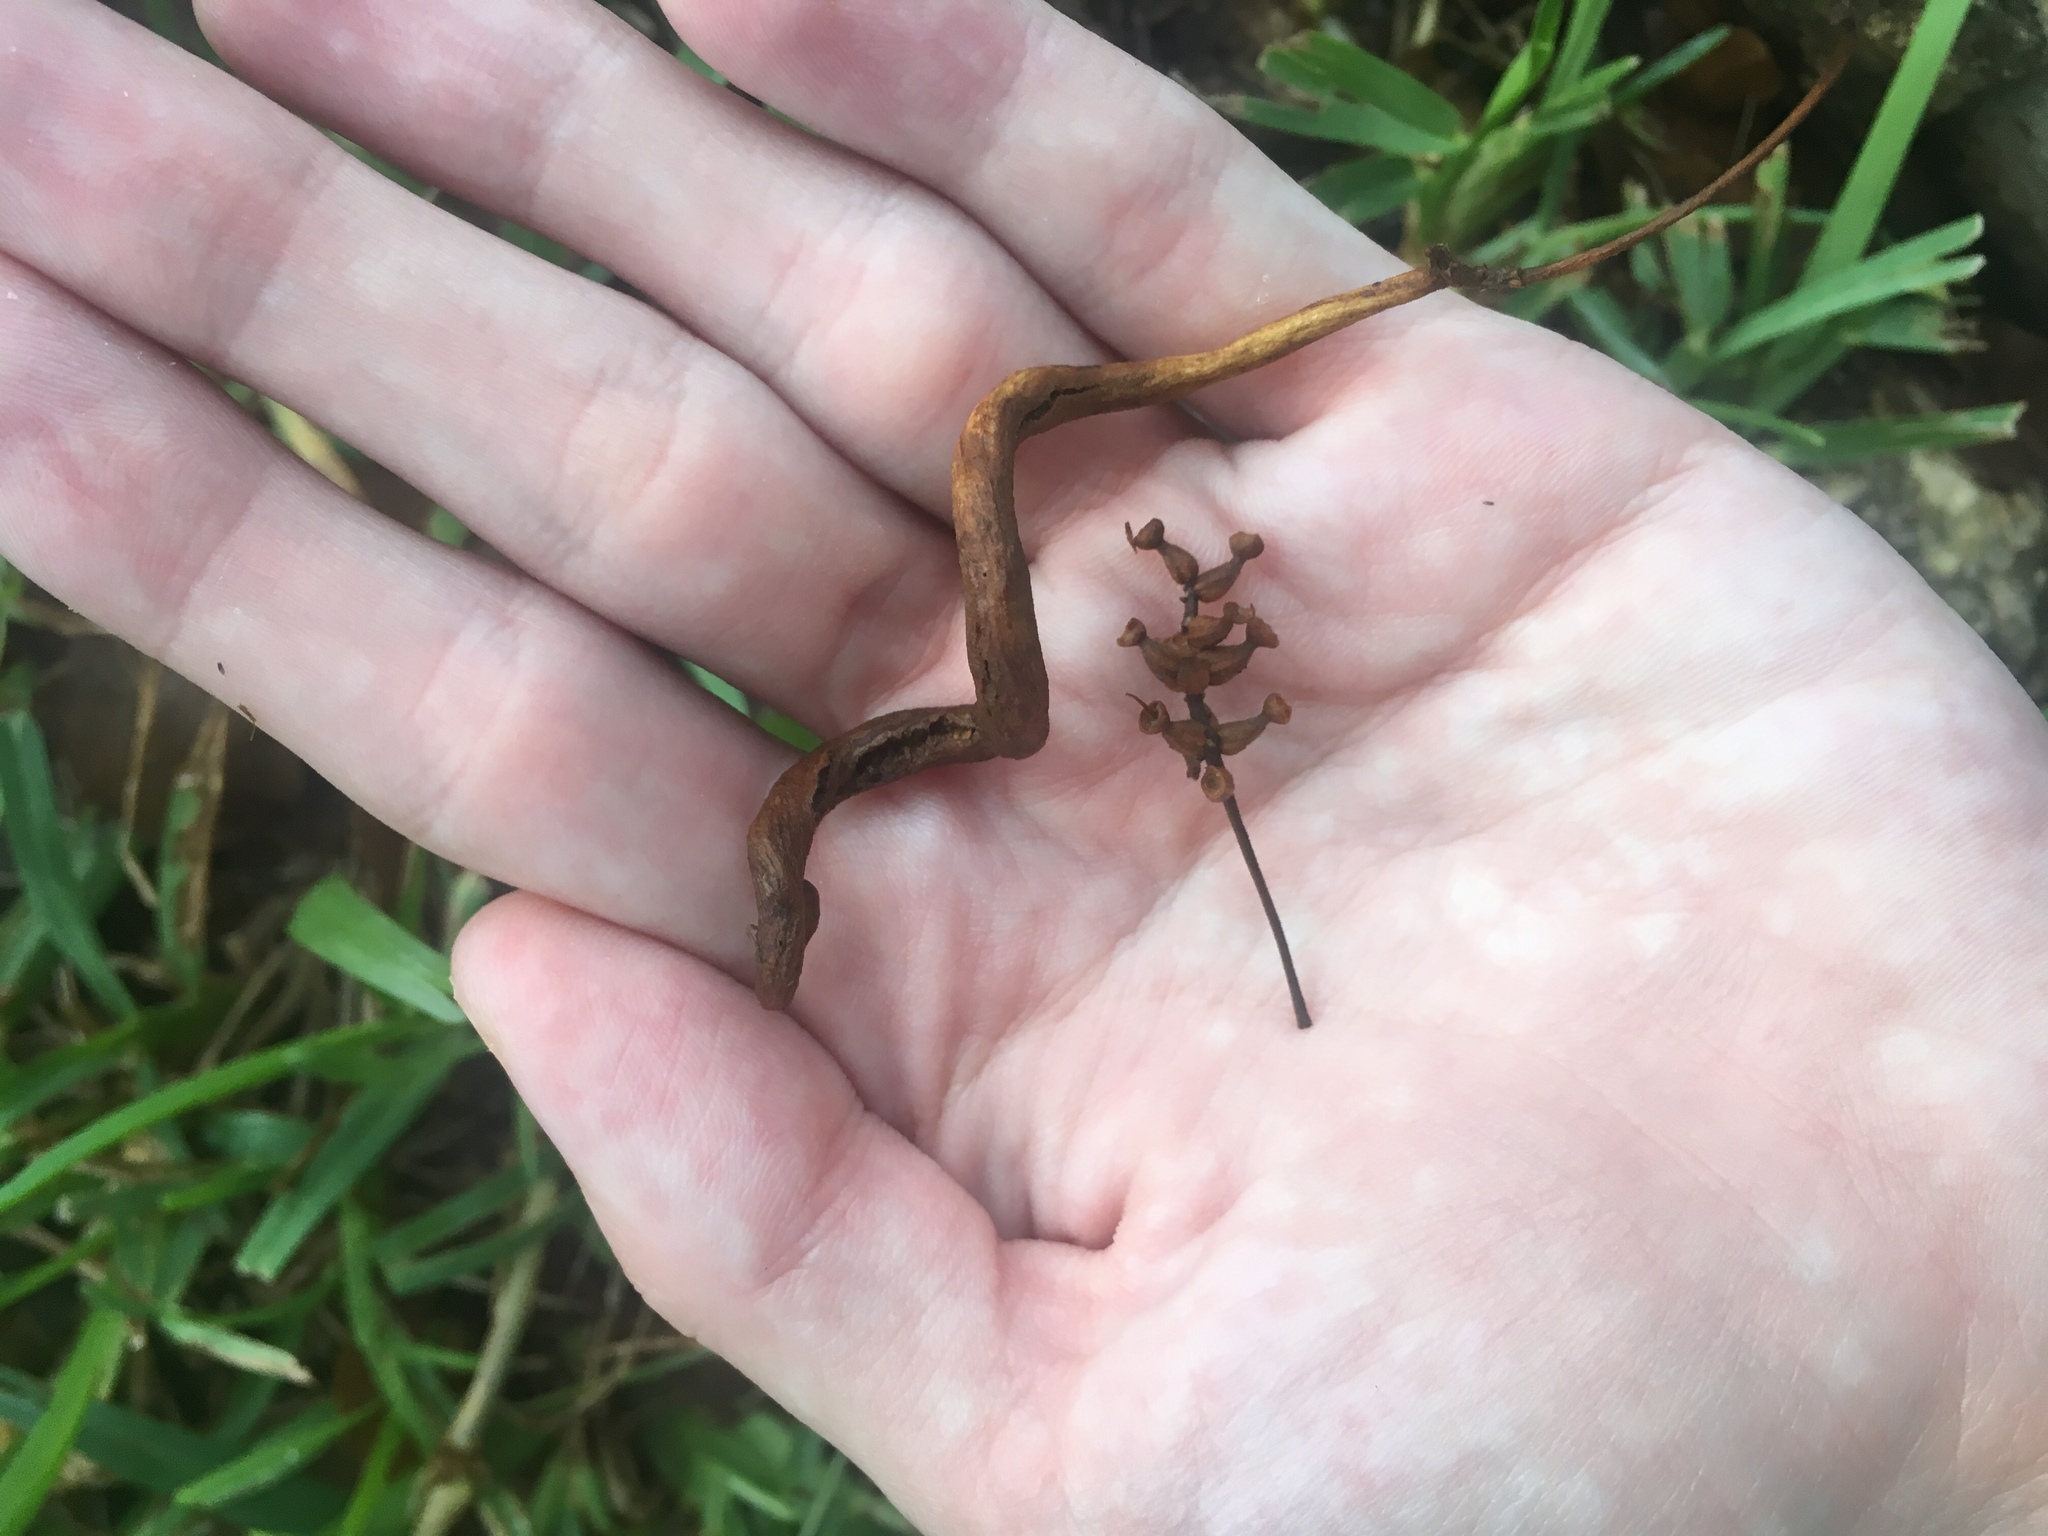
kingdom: Animalia
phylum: Arthropoda
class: Arachnida
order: Trombidiformes
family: Eriophyidae
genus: Eriophyes
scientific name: Eriophyes
